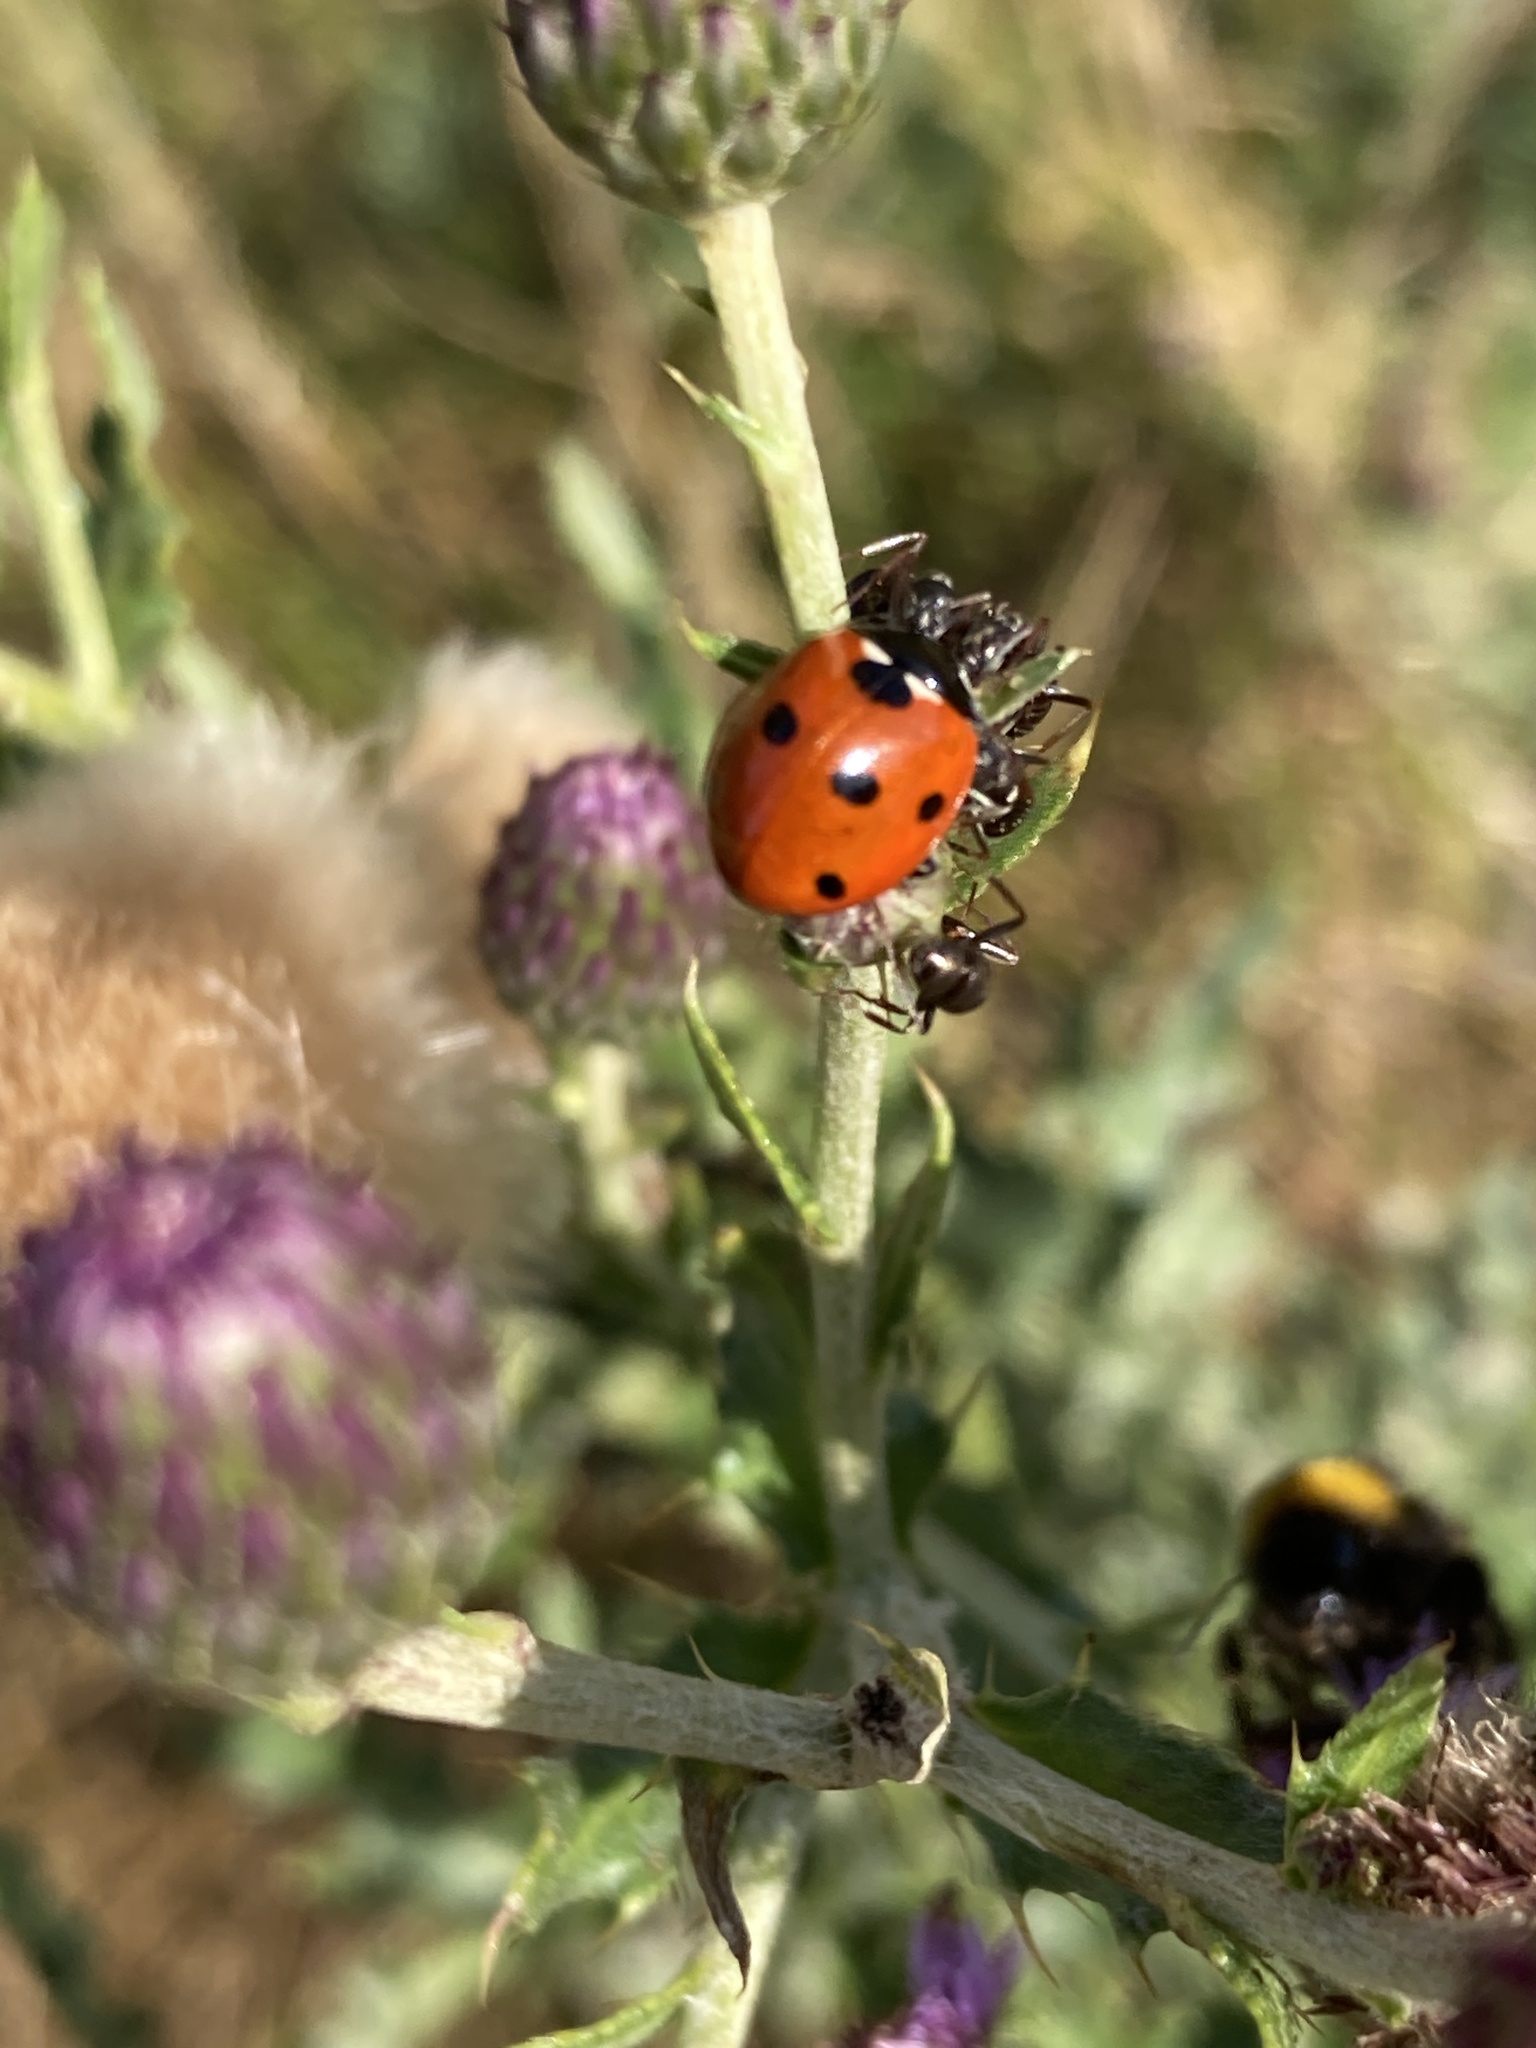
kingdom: Animalia
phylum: Arthropoda
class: Insecta
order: Coleoptera
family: Coccinellidae
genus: Coccinella
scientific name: Coccinella septempunctata
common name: Sevenspotted lady beetle
